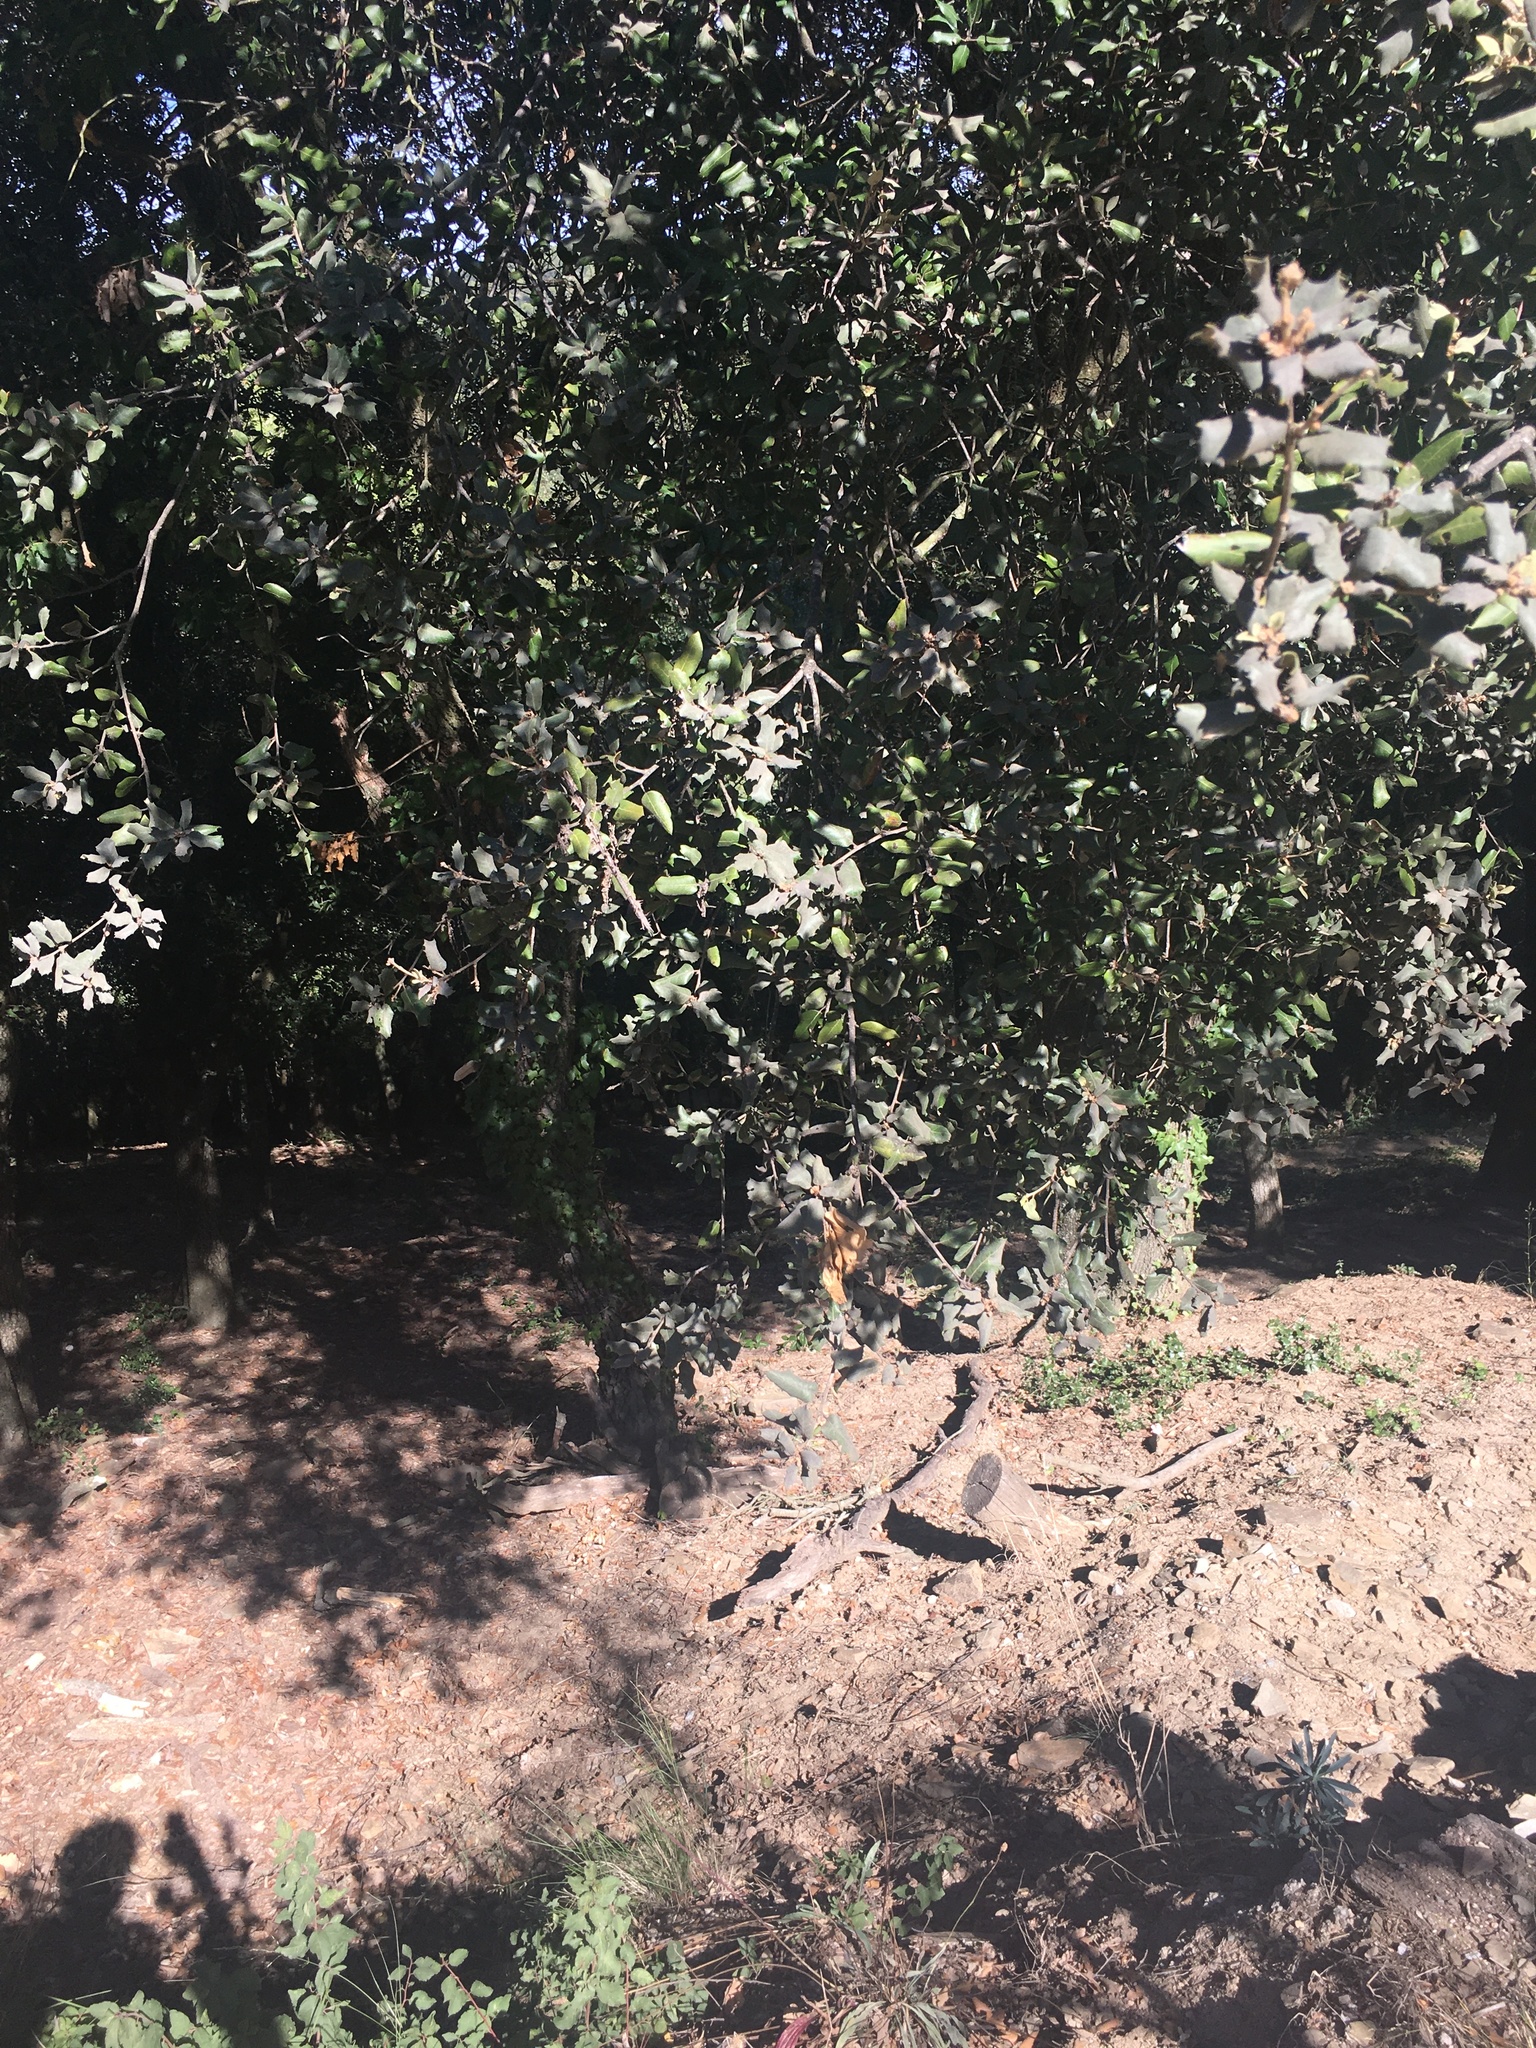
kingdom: Plantae
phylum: Tracheophyta
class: Magnoliopsida
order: Fagales
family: Fagaceae
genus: Quercus
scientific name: Quercus suber
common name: Cork oak
